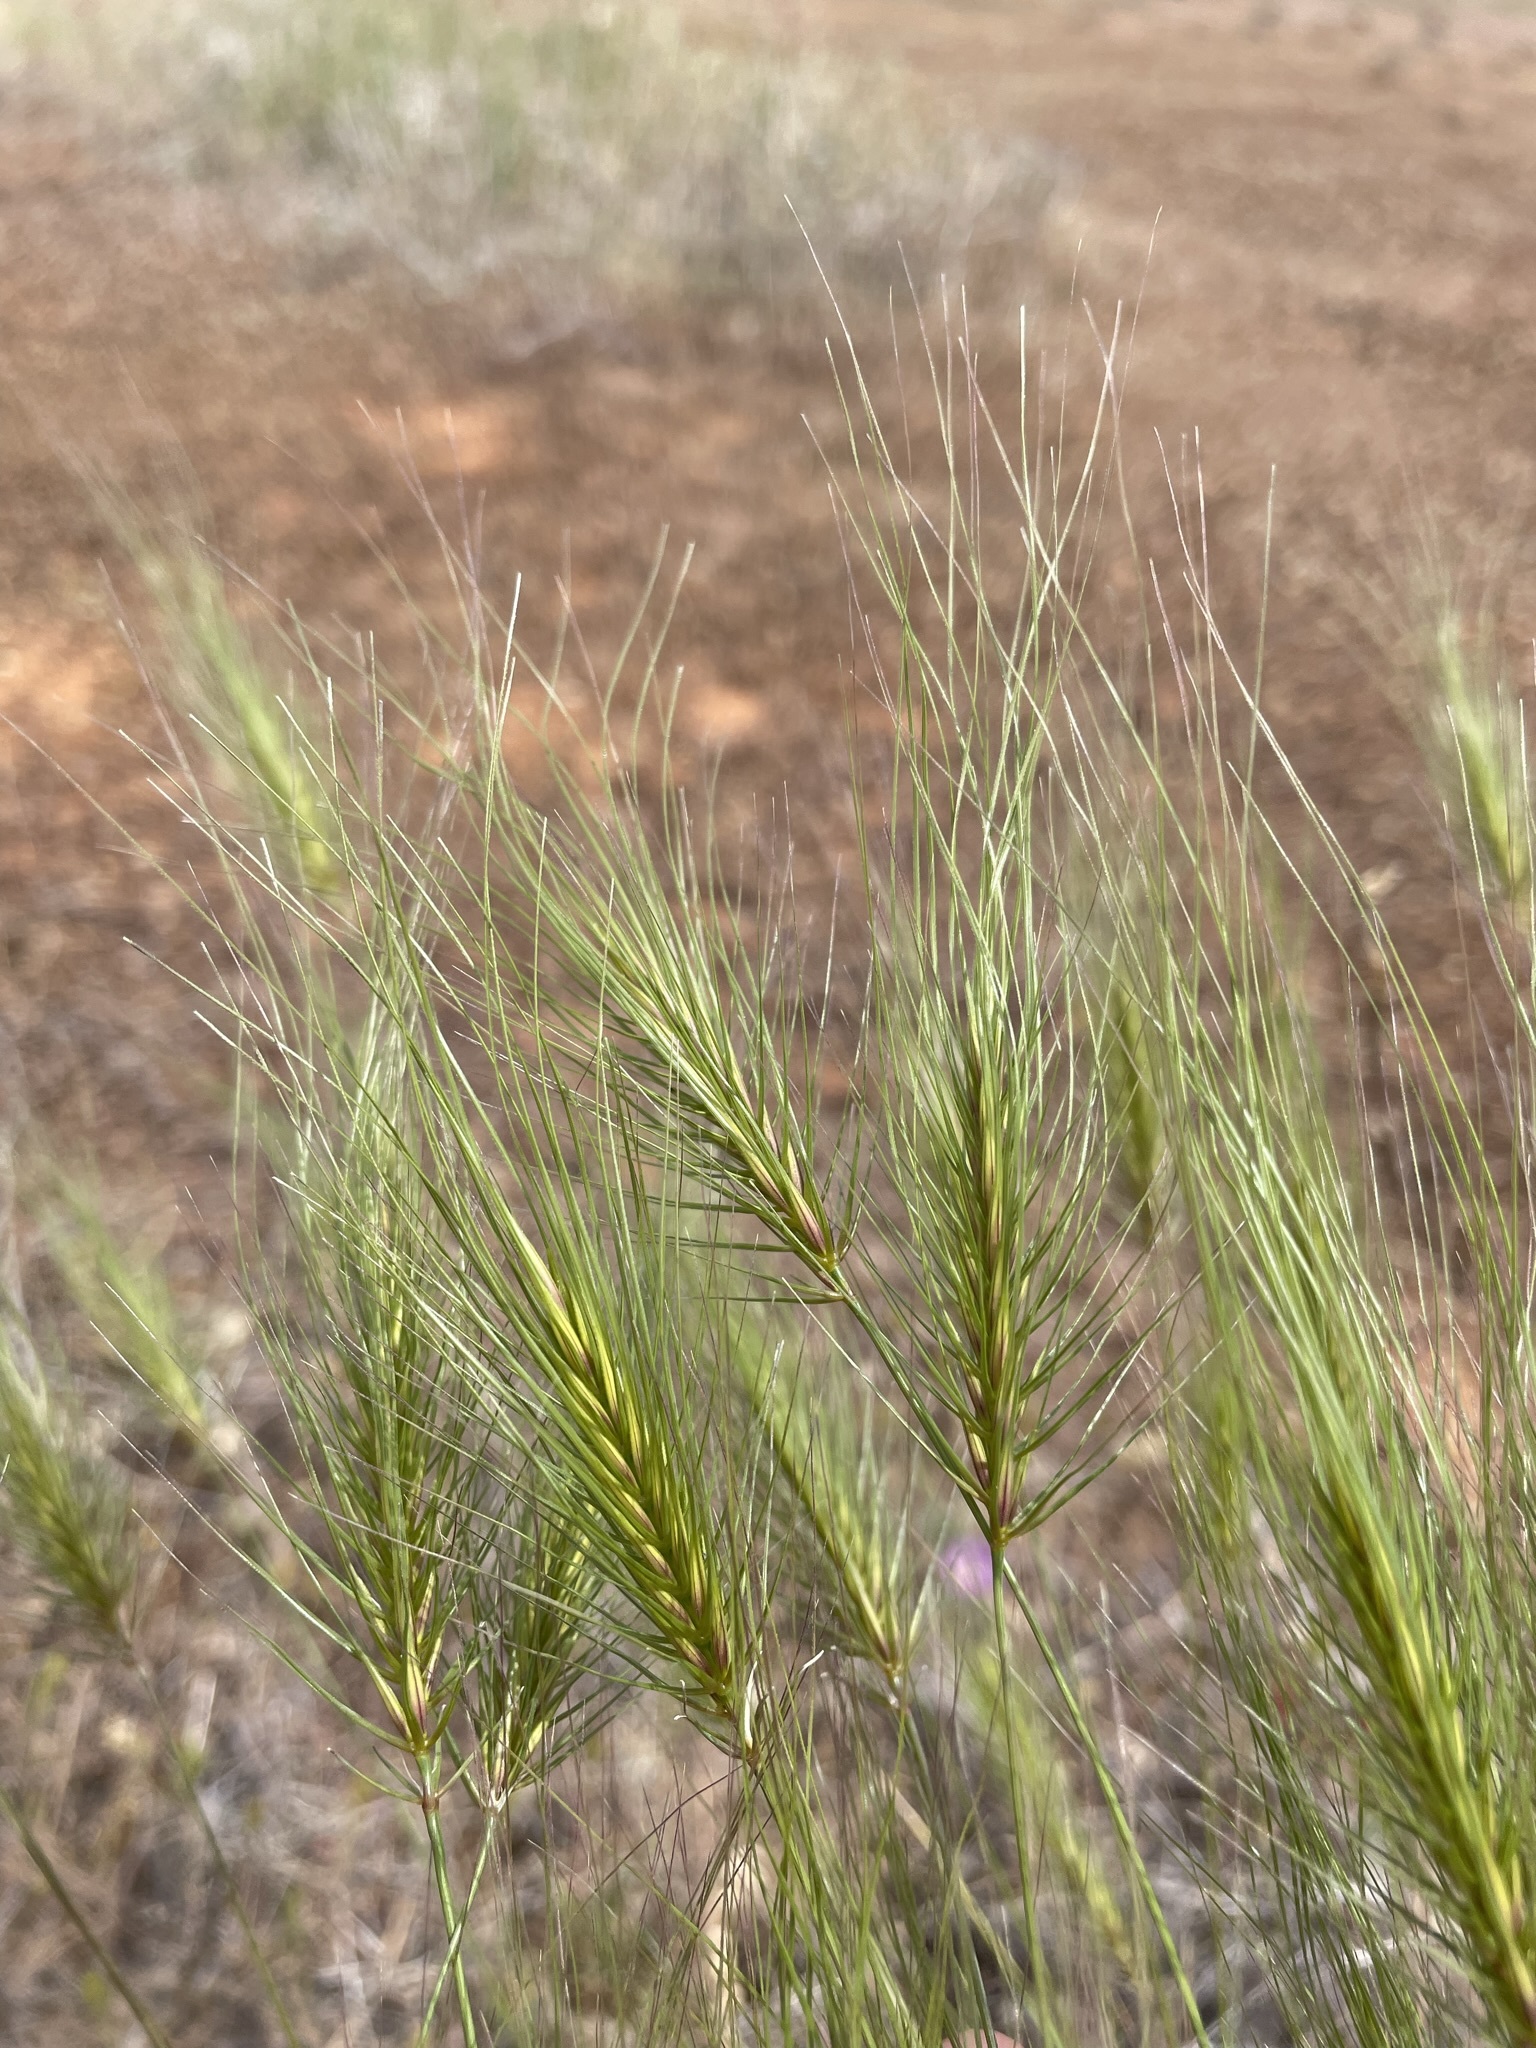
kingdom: Plantae
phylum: Tracheophyta
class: Liliopsida
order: Poales
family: Poaceae
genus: Taeniatherum
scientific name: Taeniatherum caput-medusae
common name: Medusahead
